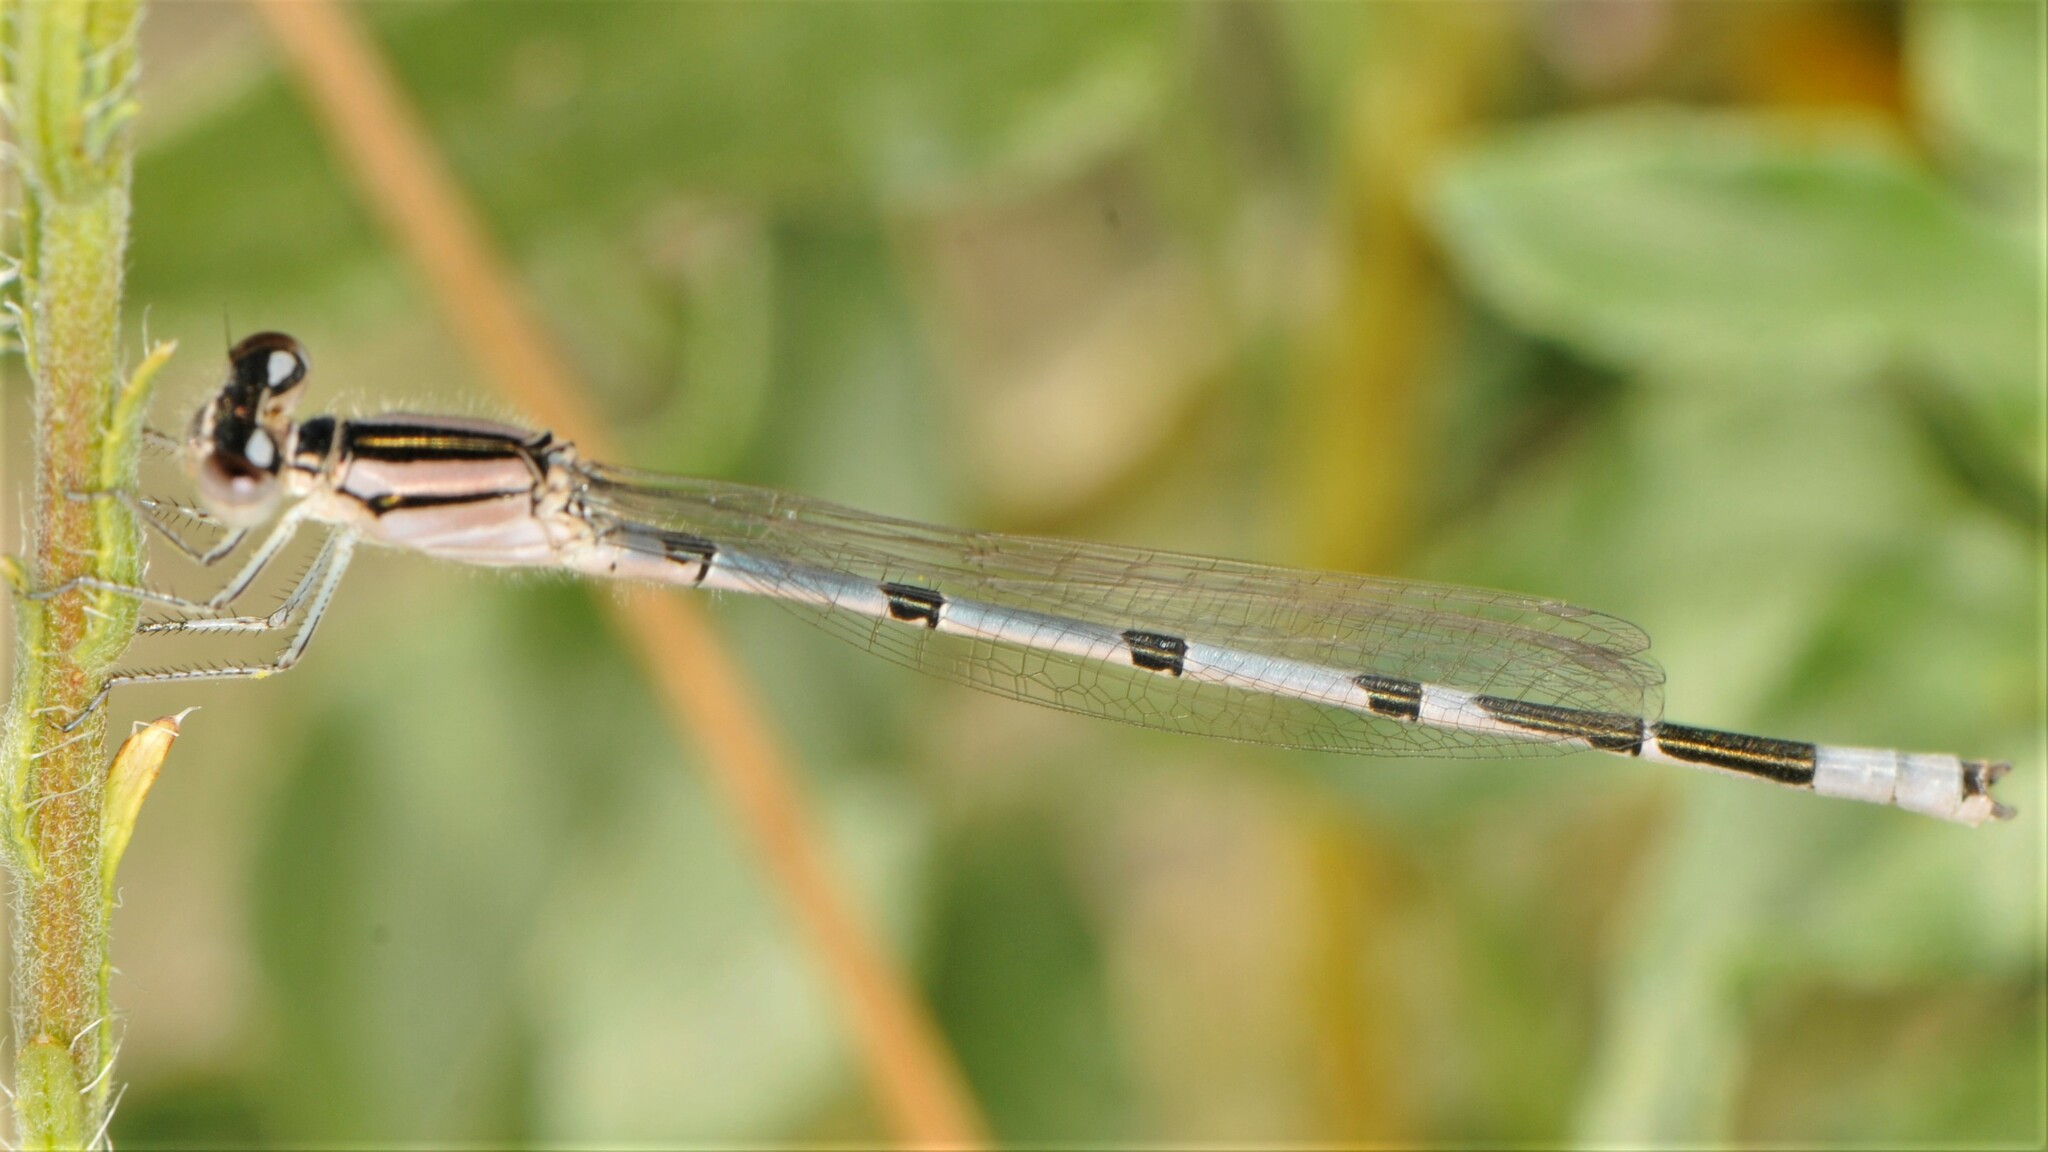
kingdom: Animalia
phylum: Arthropoda
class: Insecta
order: Odonata
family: Coenagrionidae
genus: Enallagma
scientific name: Enallagma civile
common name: Damselfly
